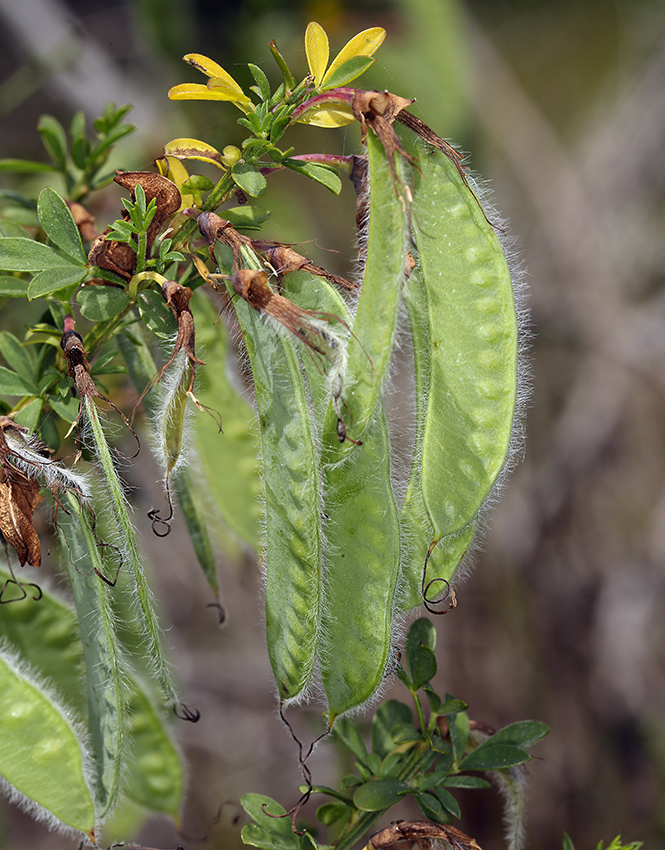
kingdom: Plantae
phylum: Tracheophyta
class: Magnoliopsida
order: Fabales
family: Fabaceae
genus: Cytisus
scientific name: Cytisus scoparius
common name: Scotch broom
